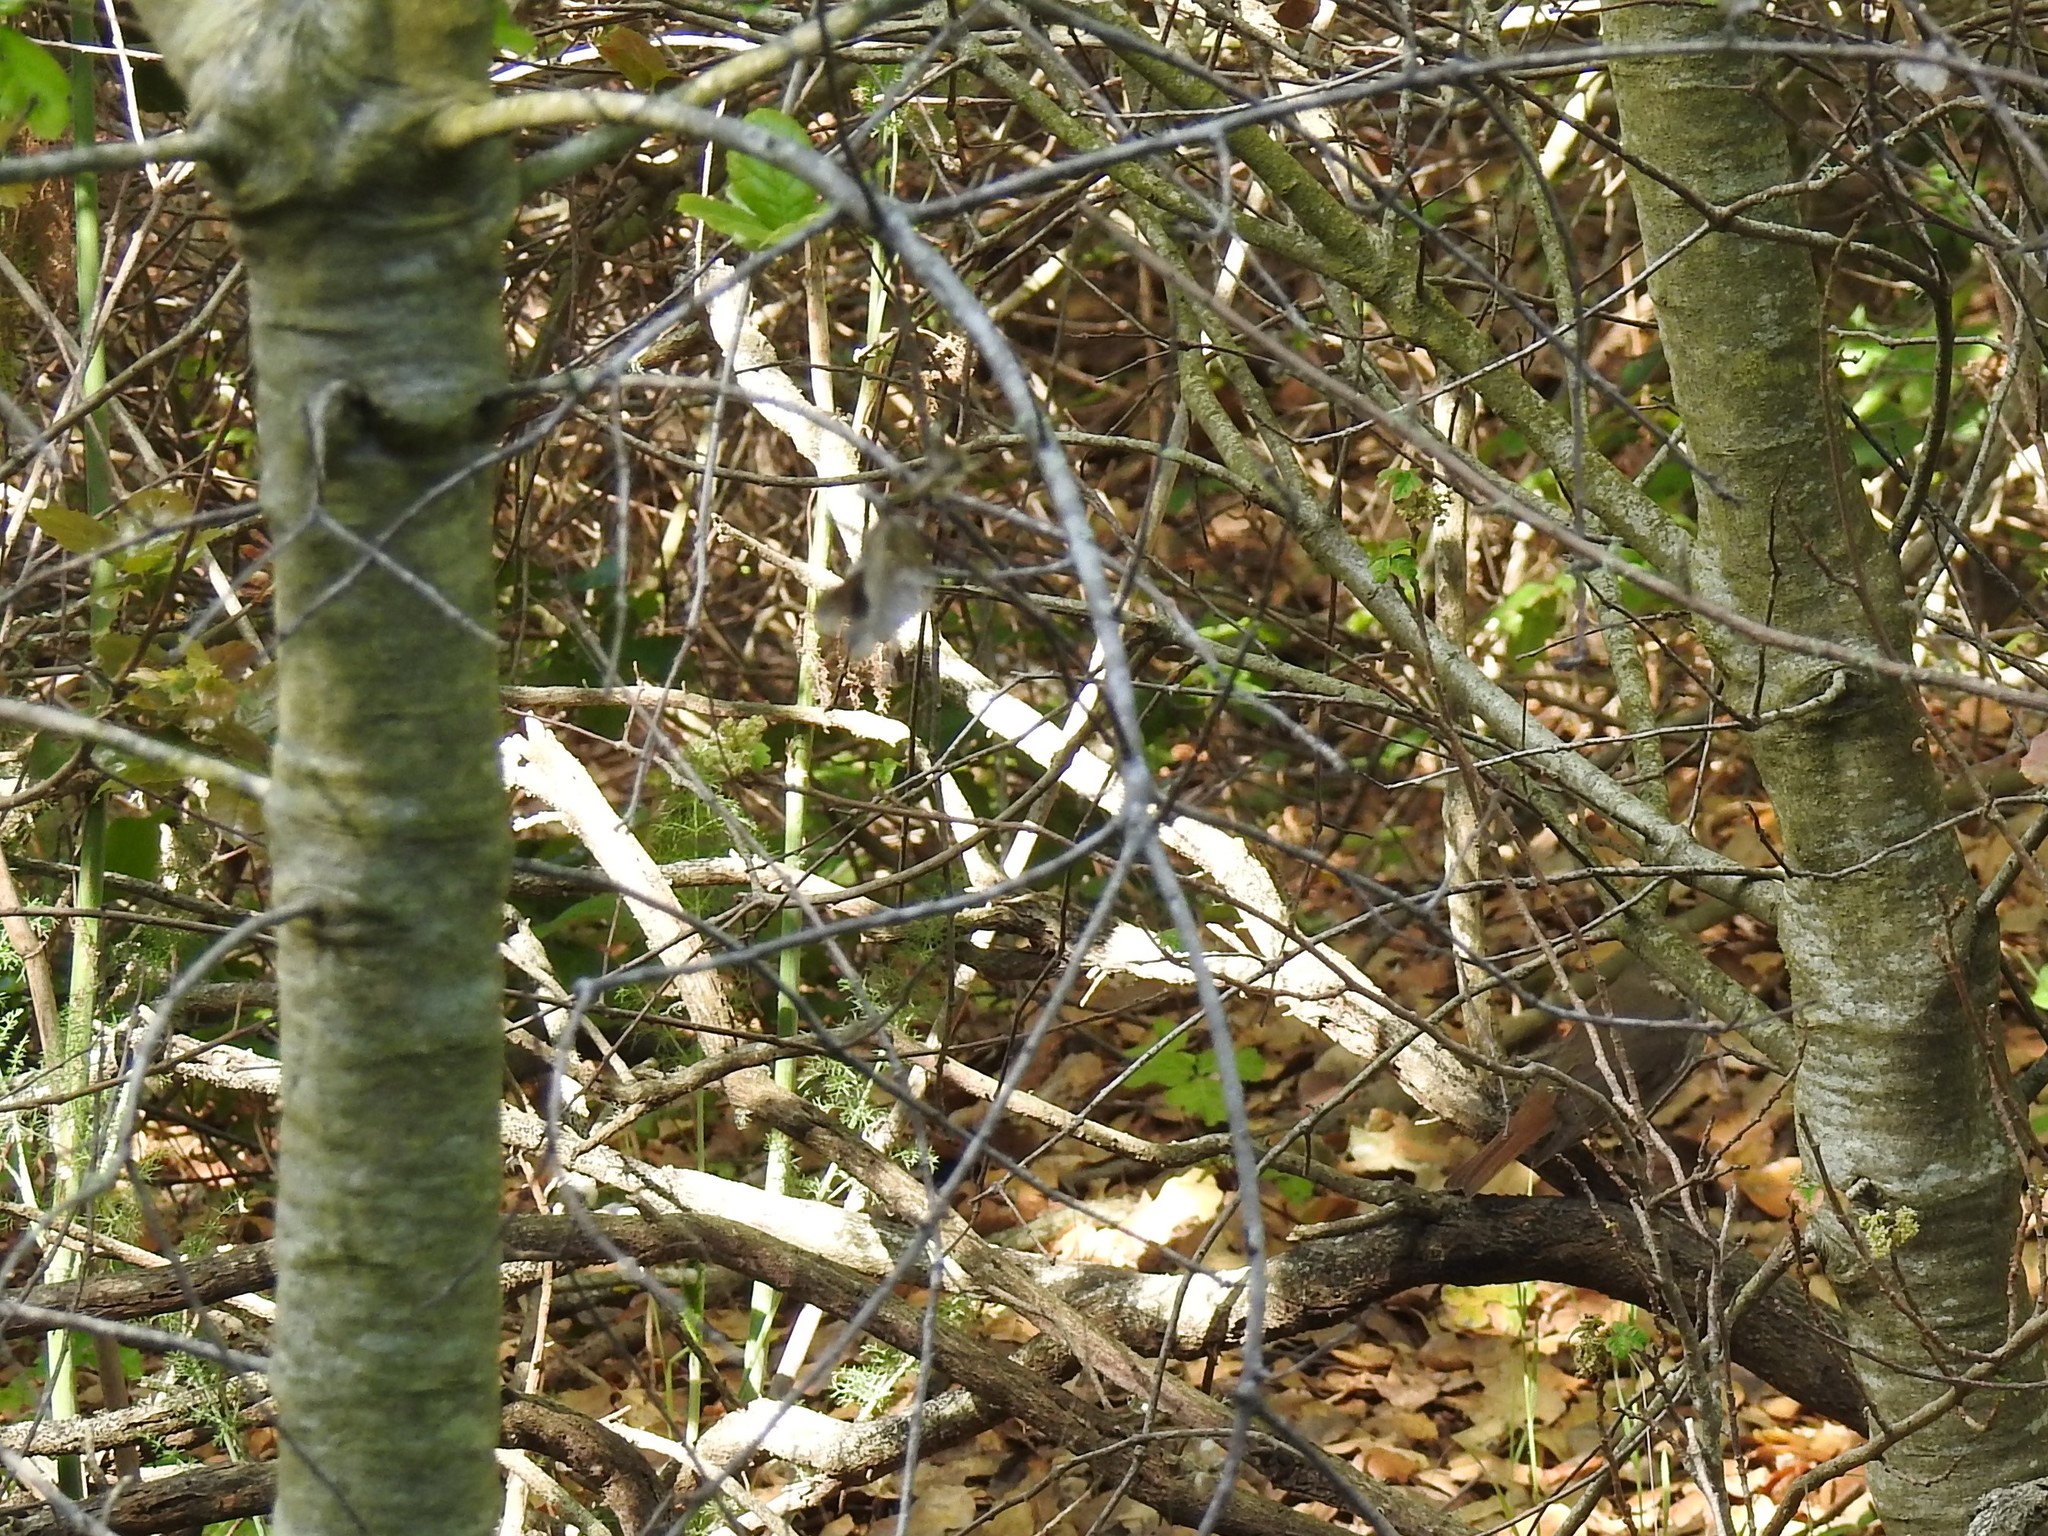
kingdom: Animalia
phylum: Chordata
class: Aves
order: Passeriformes
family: Turdidae
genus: Catharus
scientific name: Catharus guttatus
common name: Hermit thrush
